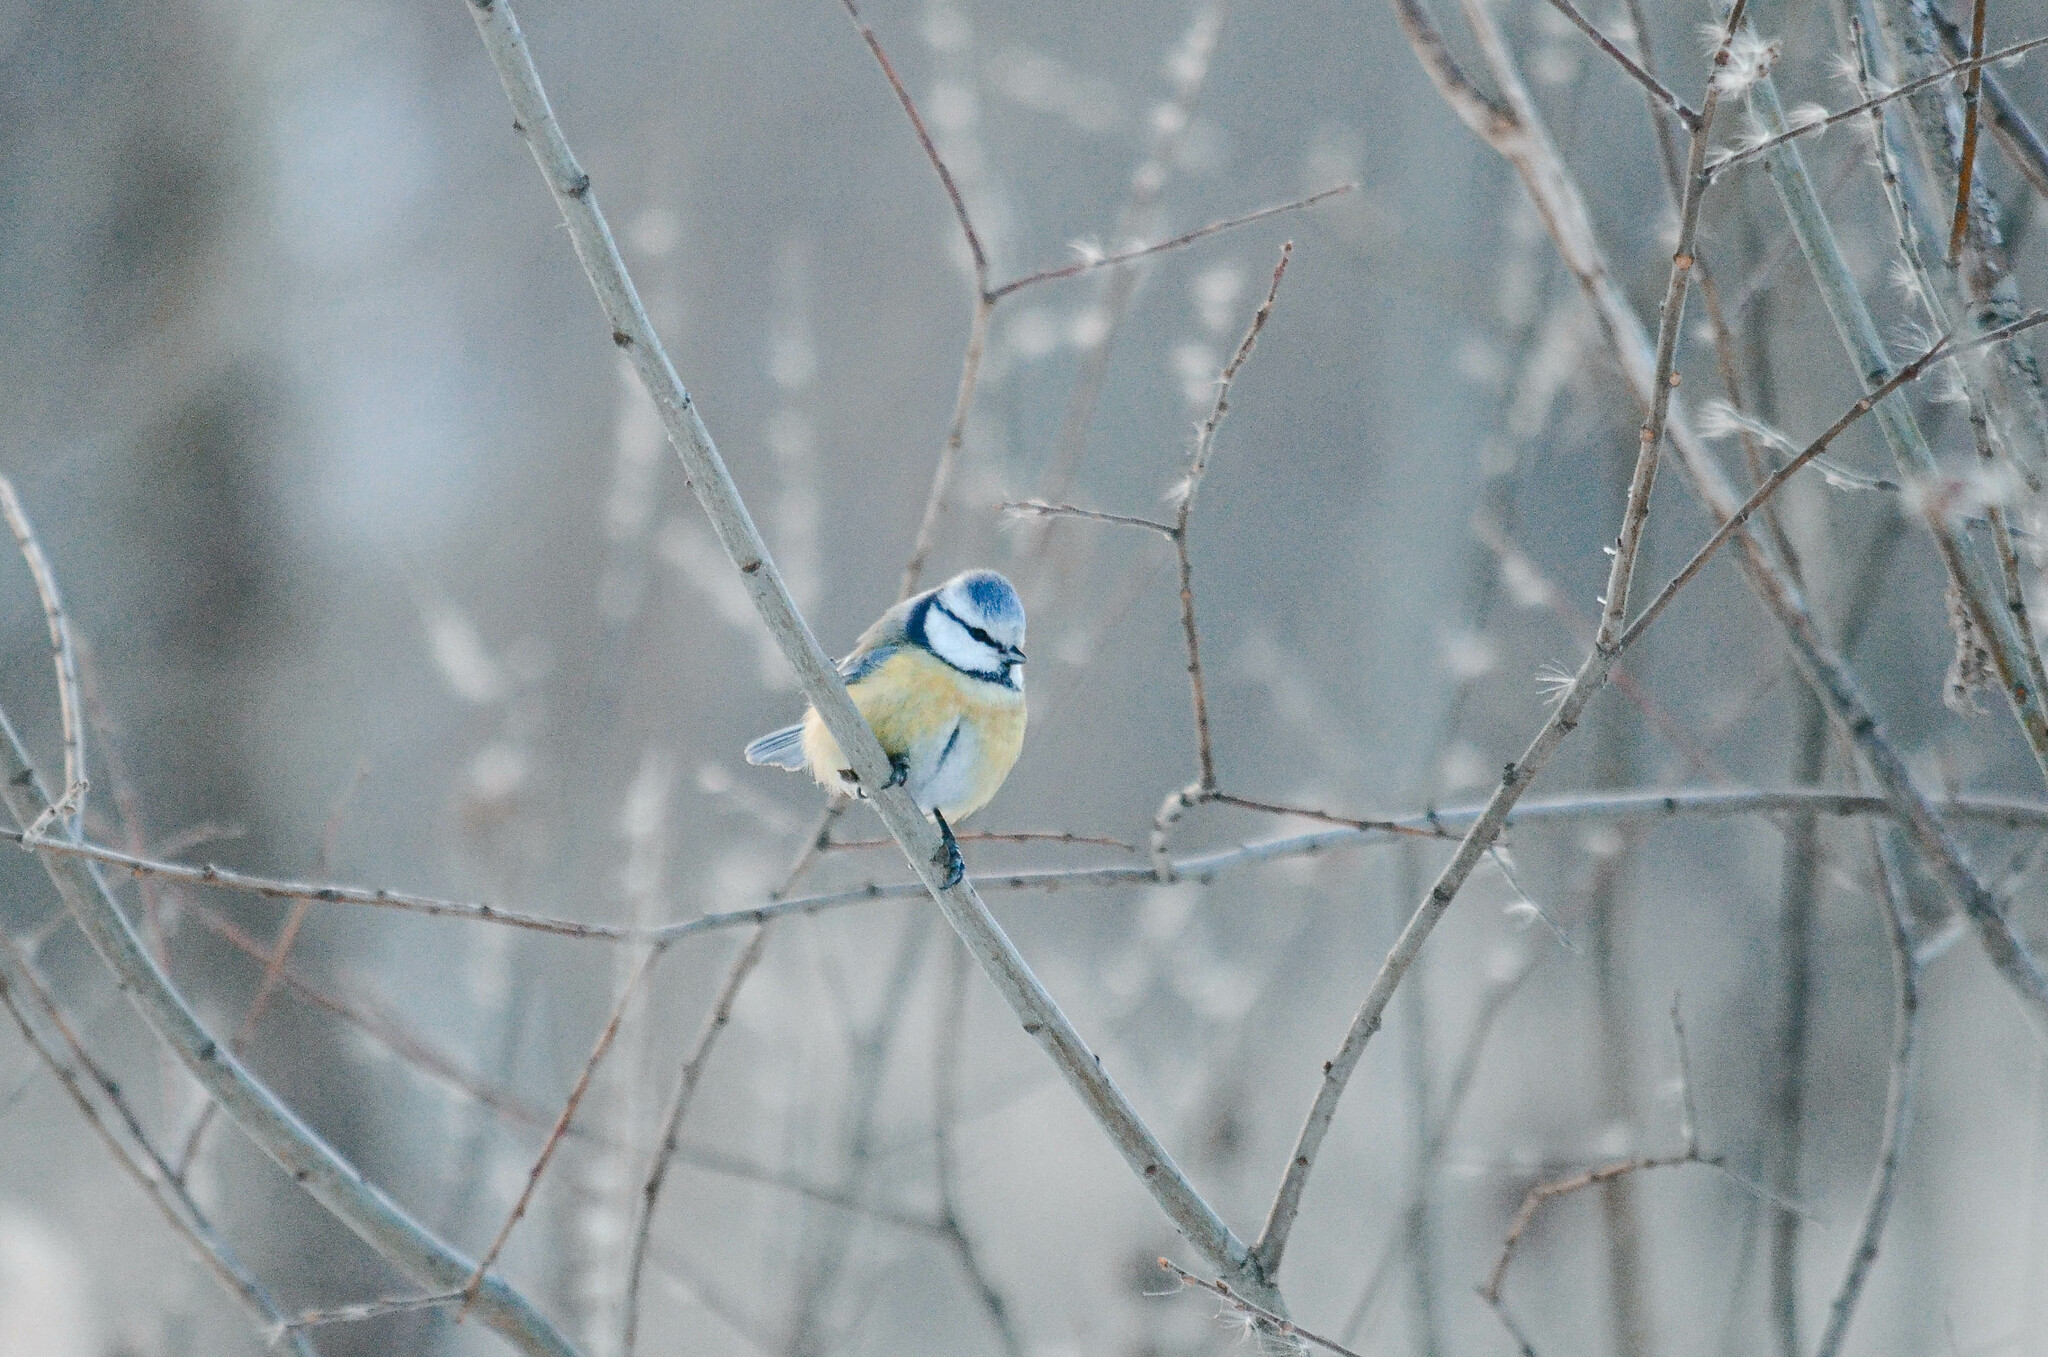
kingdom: Animalia
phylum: Chordata
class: Aves
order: Passeriformes
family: Paridae
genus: Cyanistes
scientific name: Cyanistes caeruleus
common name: Eurasian blue tit
